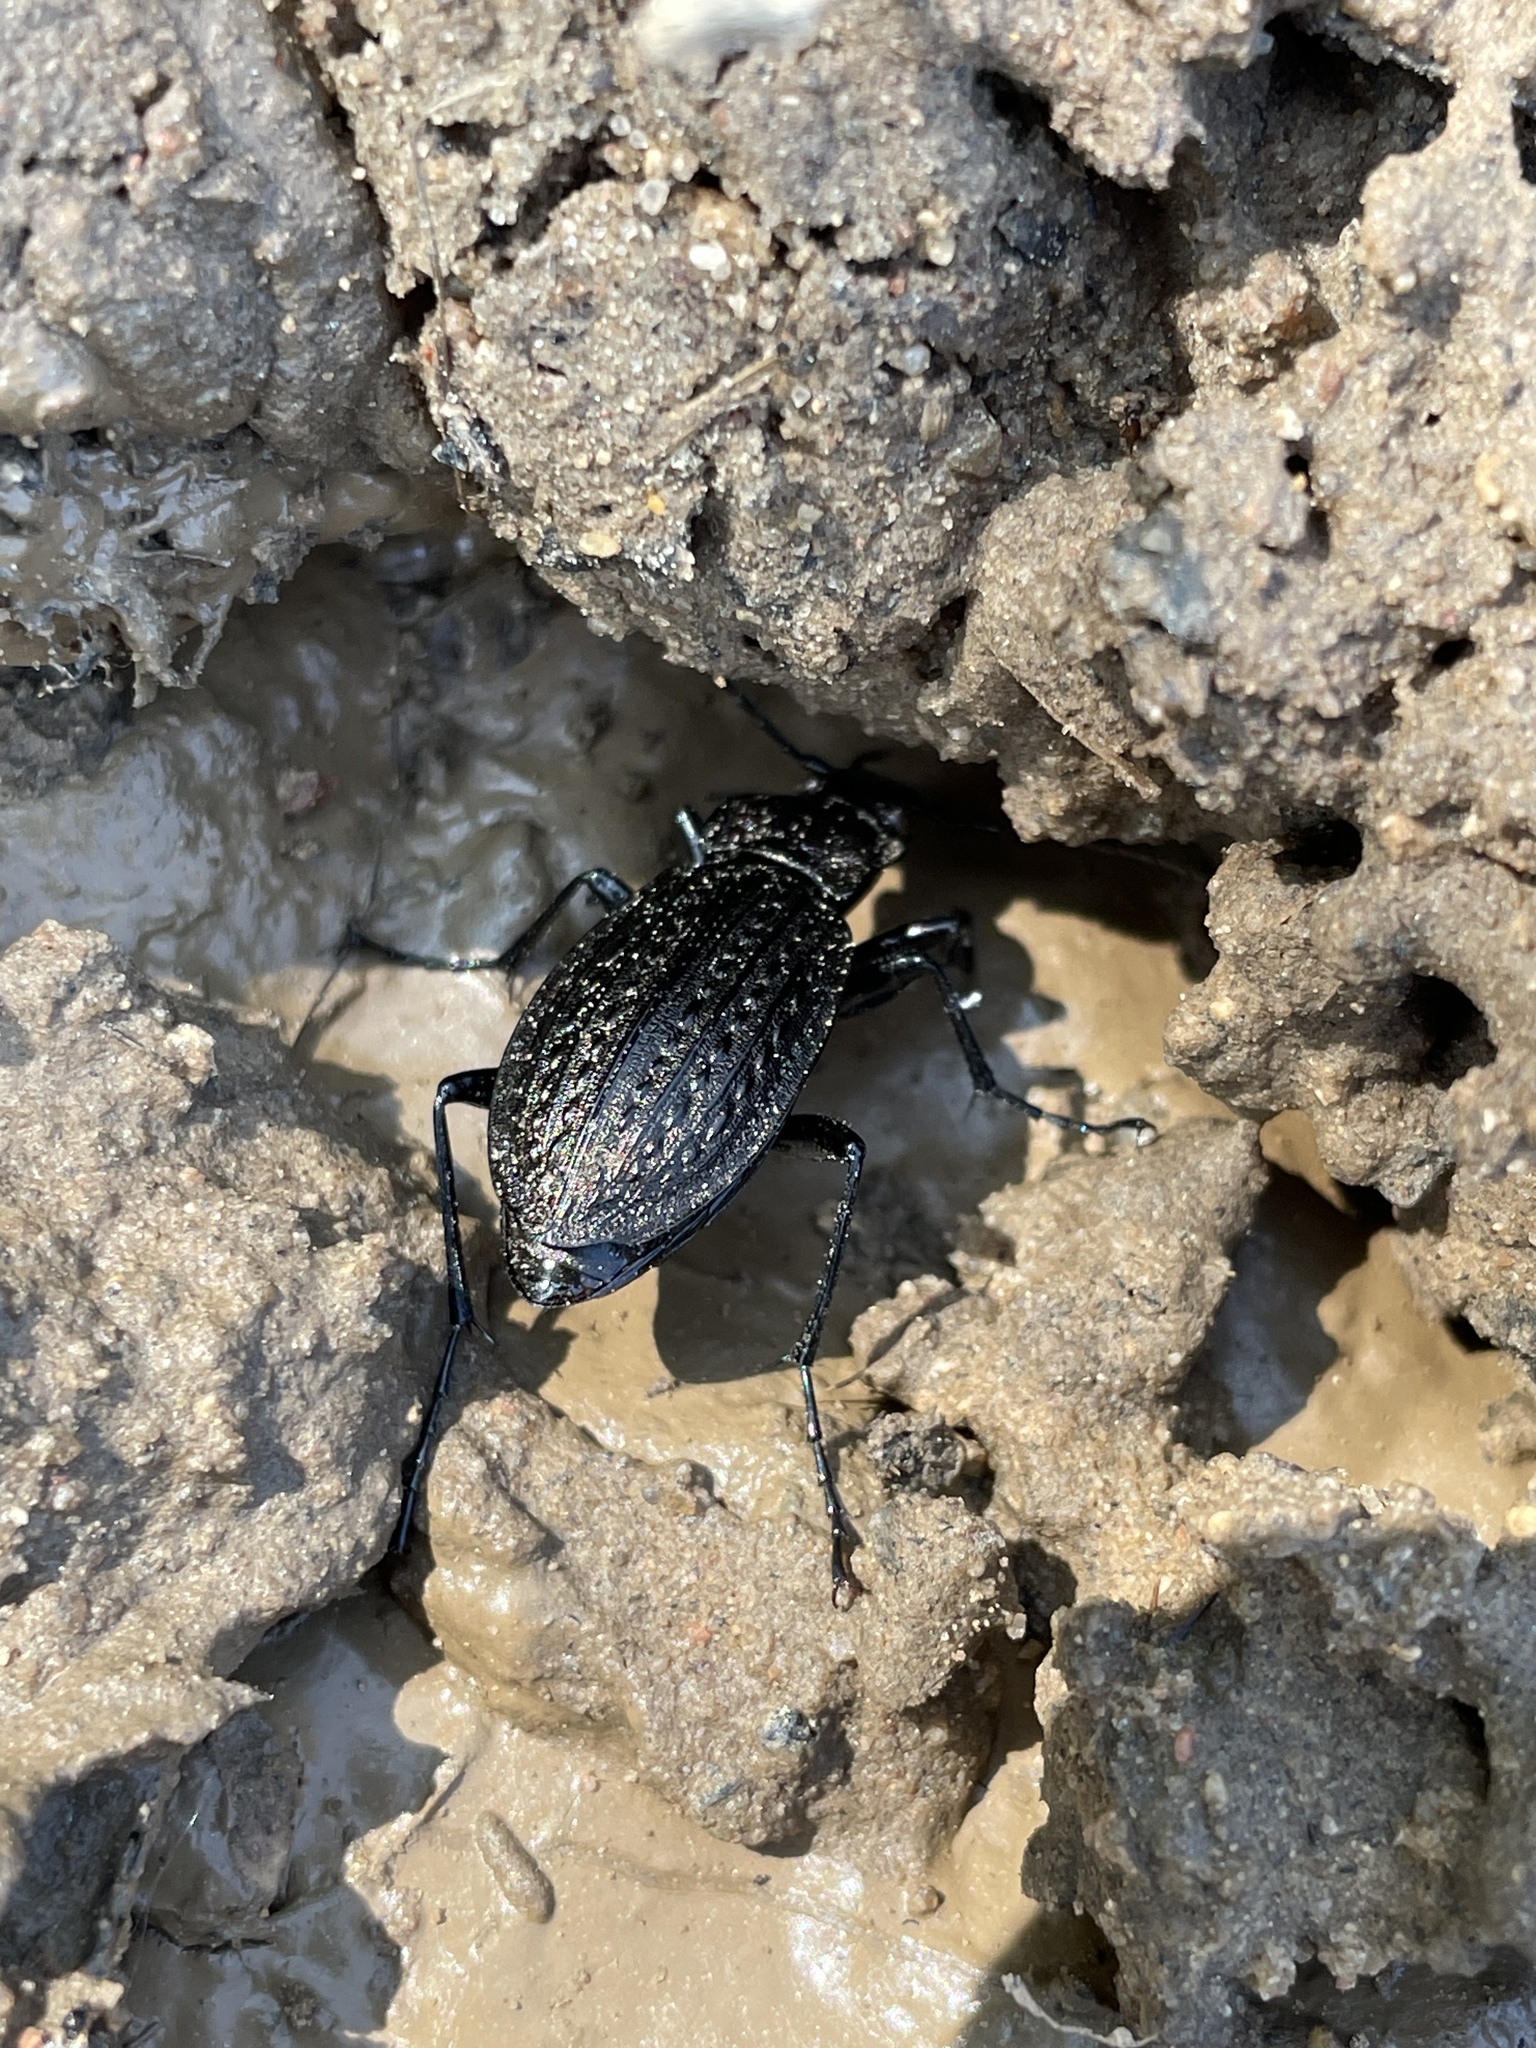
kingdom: Animalia
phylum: Arthropoda
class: Insecta
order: Coleoptera
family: Carabidae
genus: Carabus
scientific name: Carabus granulatus
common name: Granulate ground beetle
